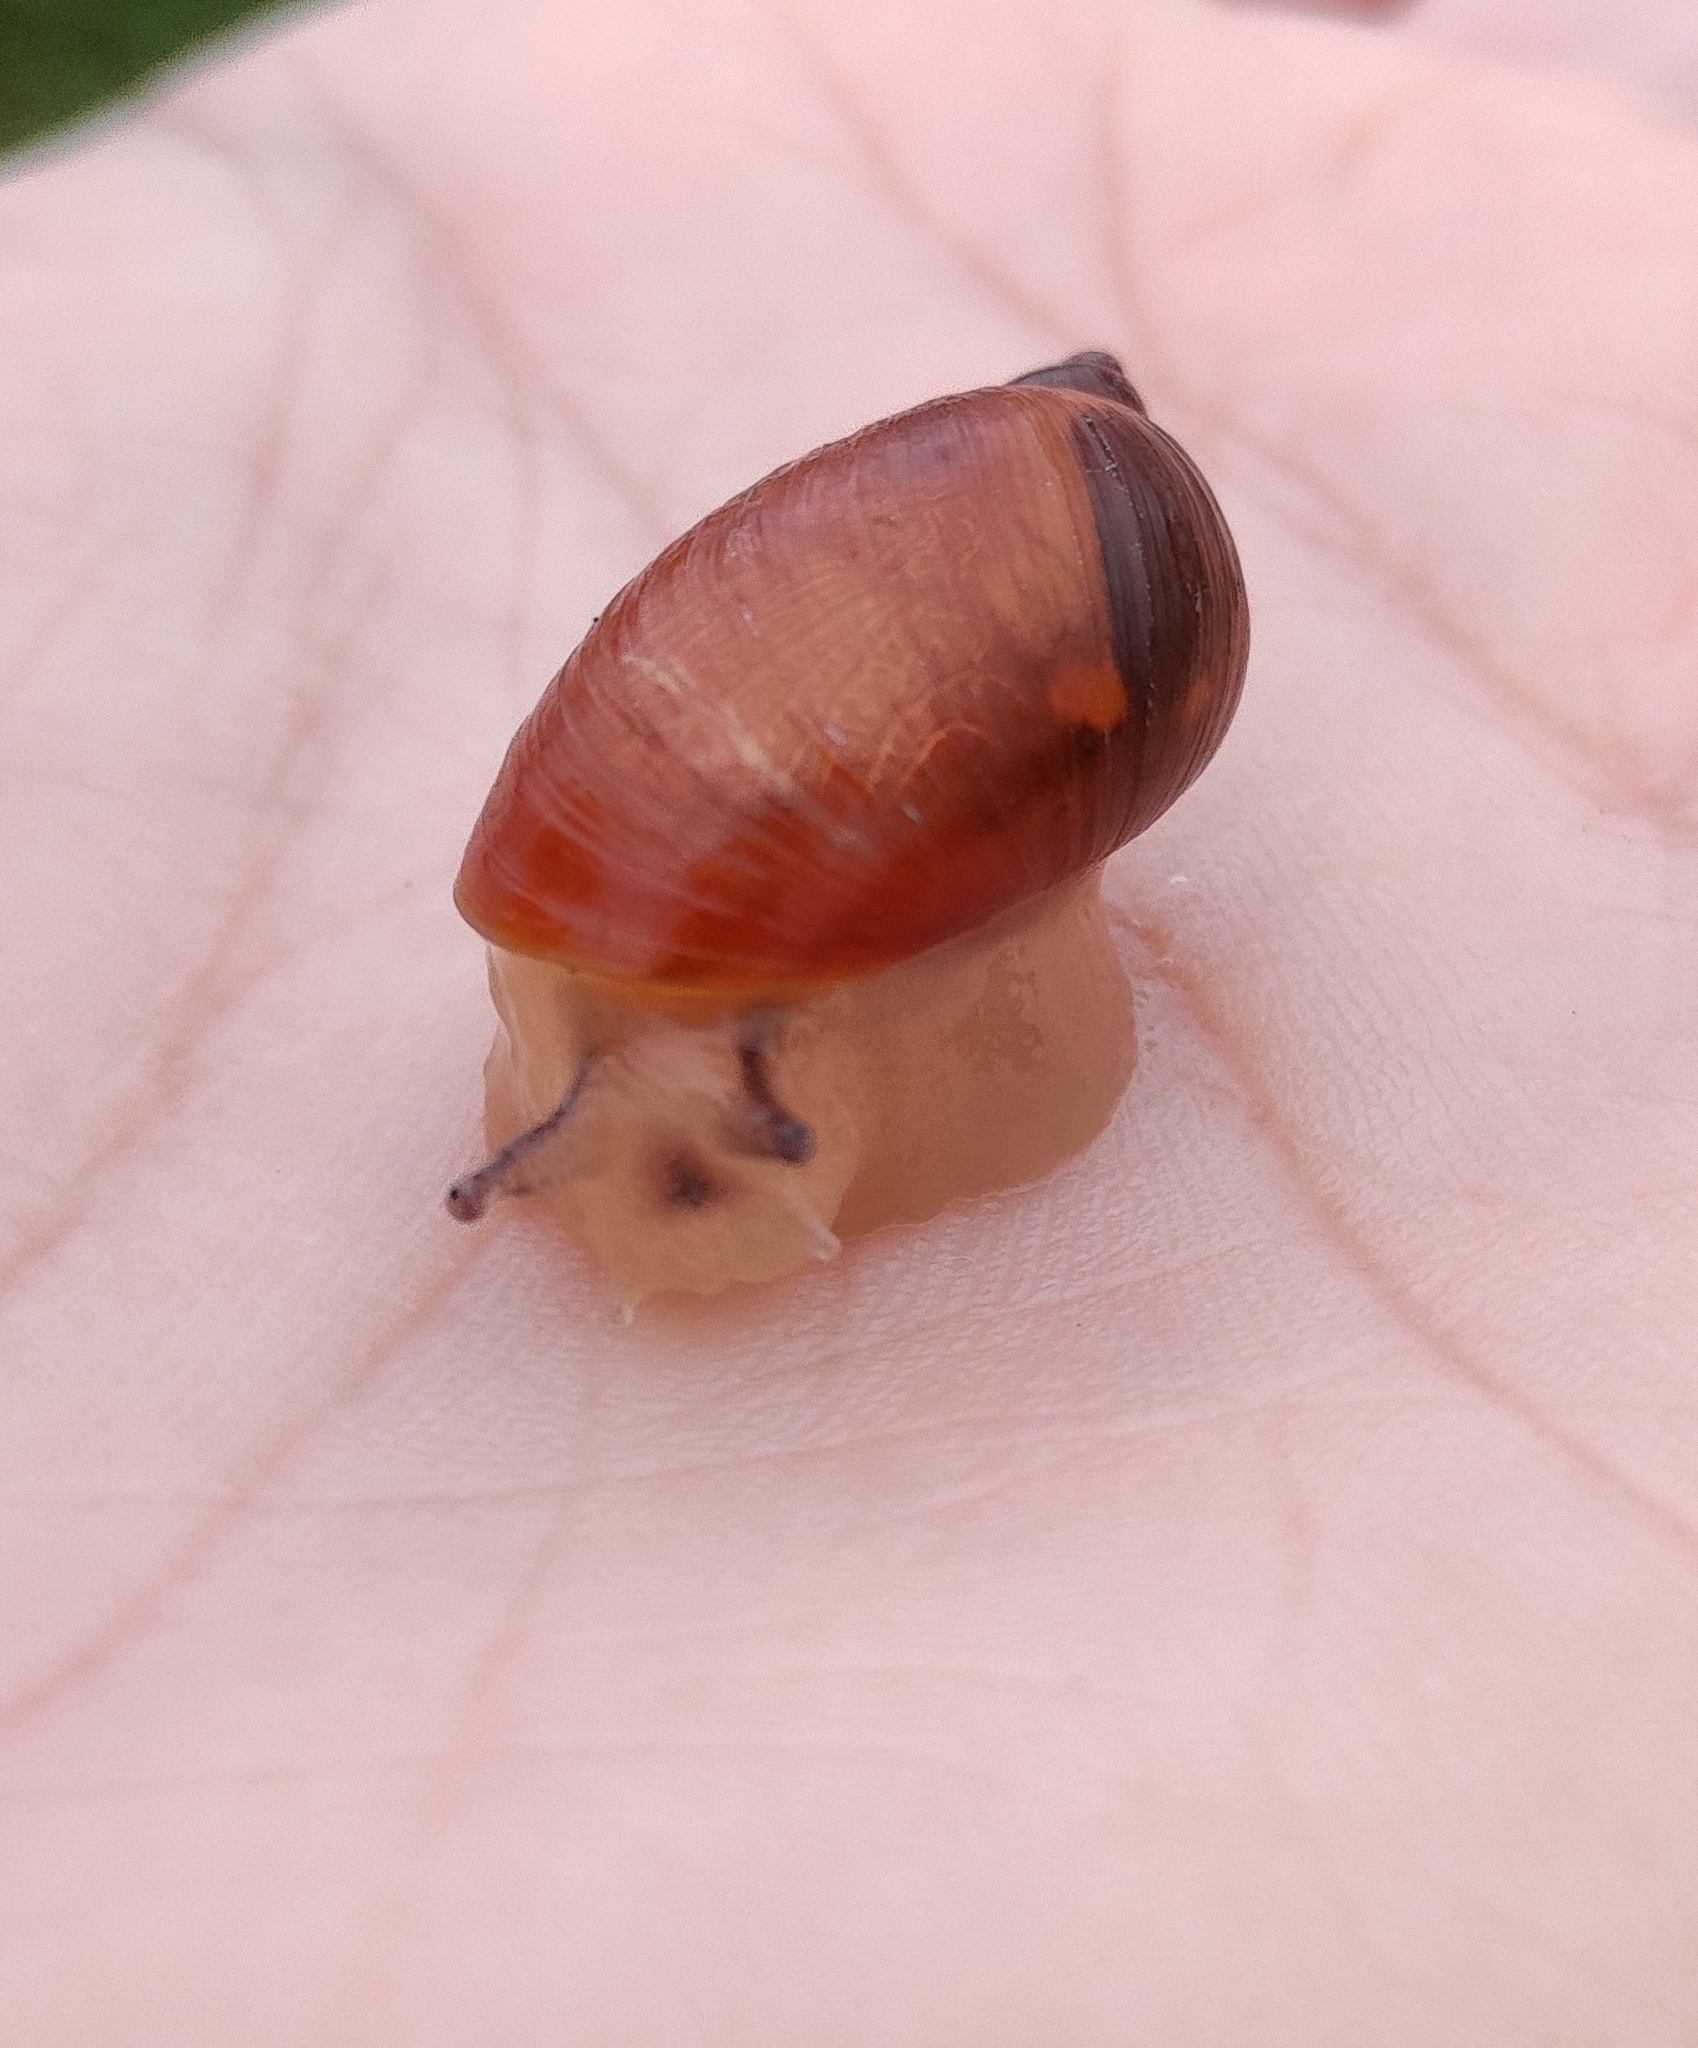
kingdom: Animalia
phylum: Mollusca
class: Gastropoda
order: Stylommatophora
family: Succineidae
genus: Succinea
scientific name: Succinea putris
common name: European ambersnail
